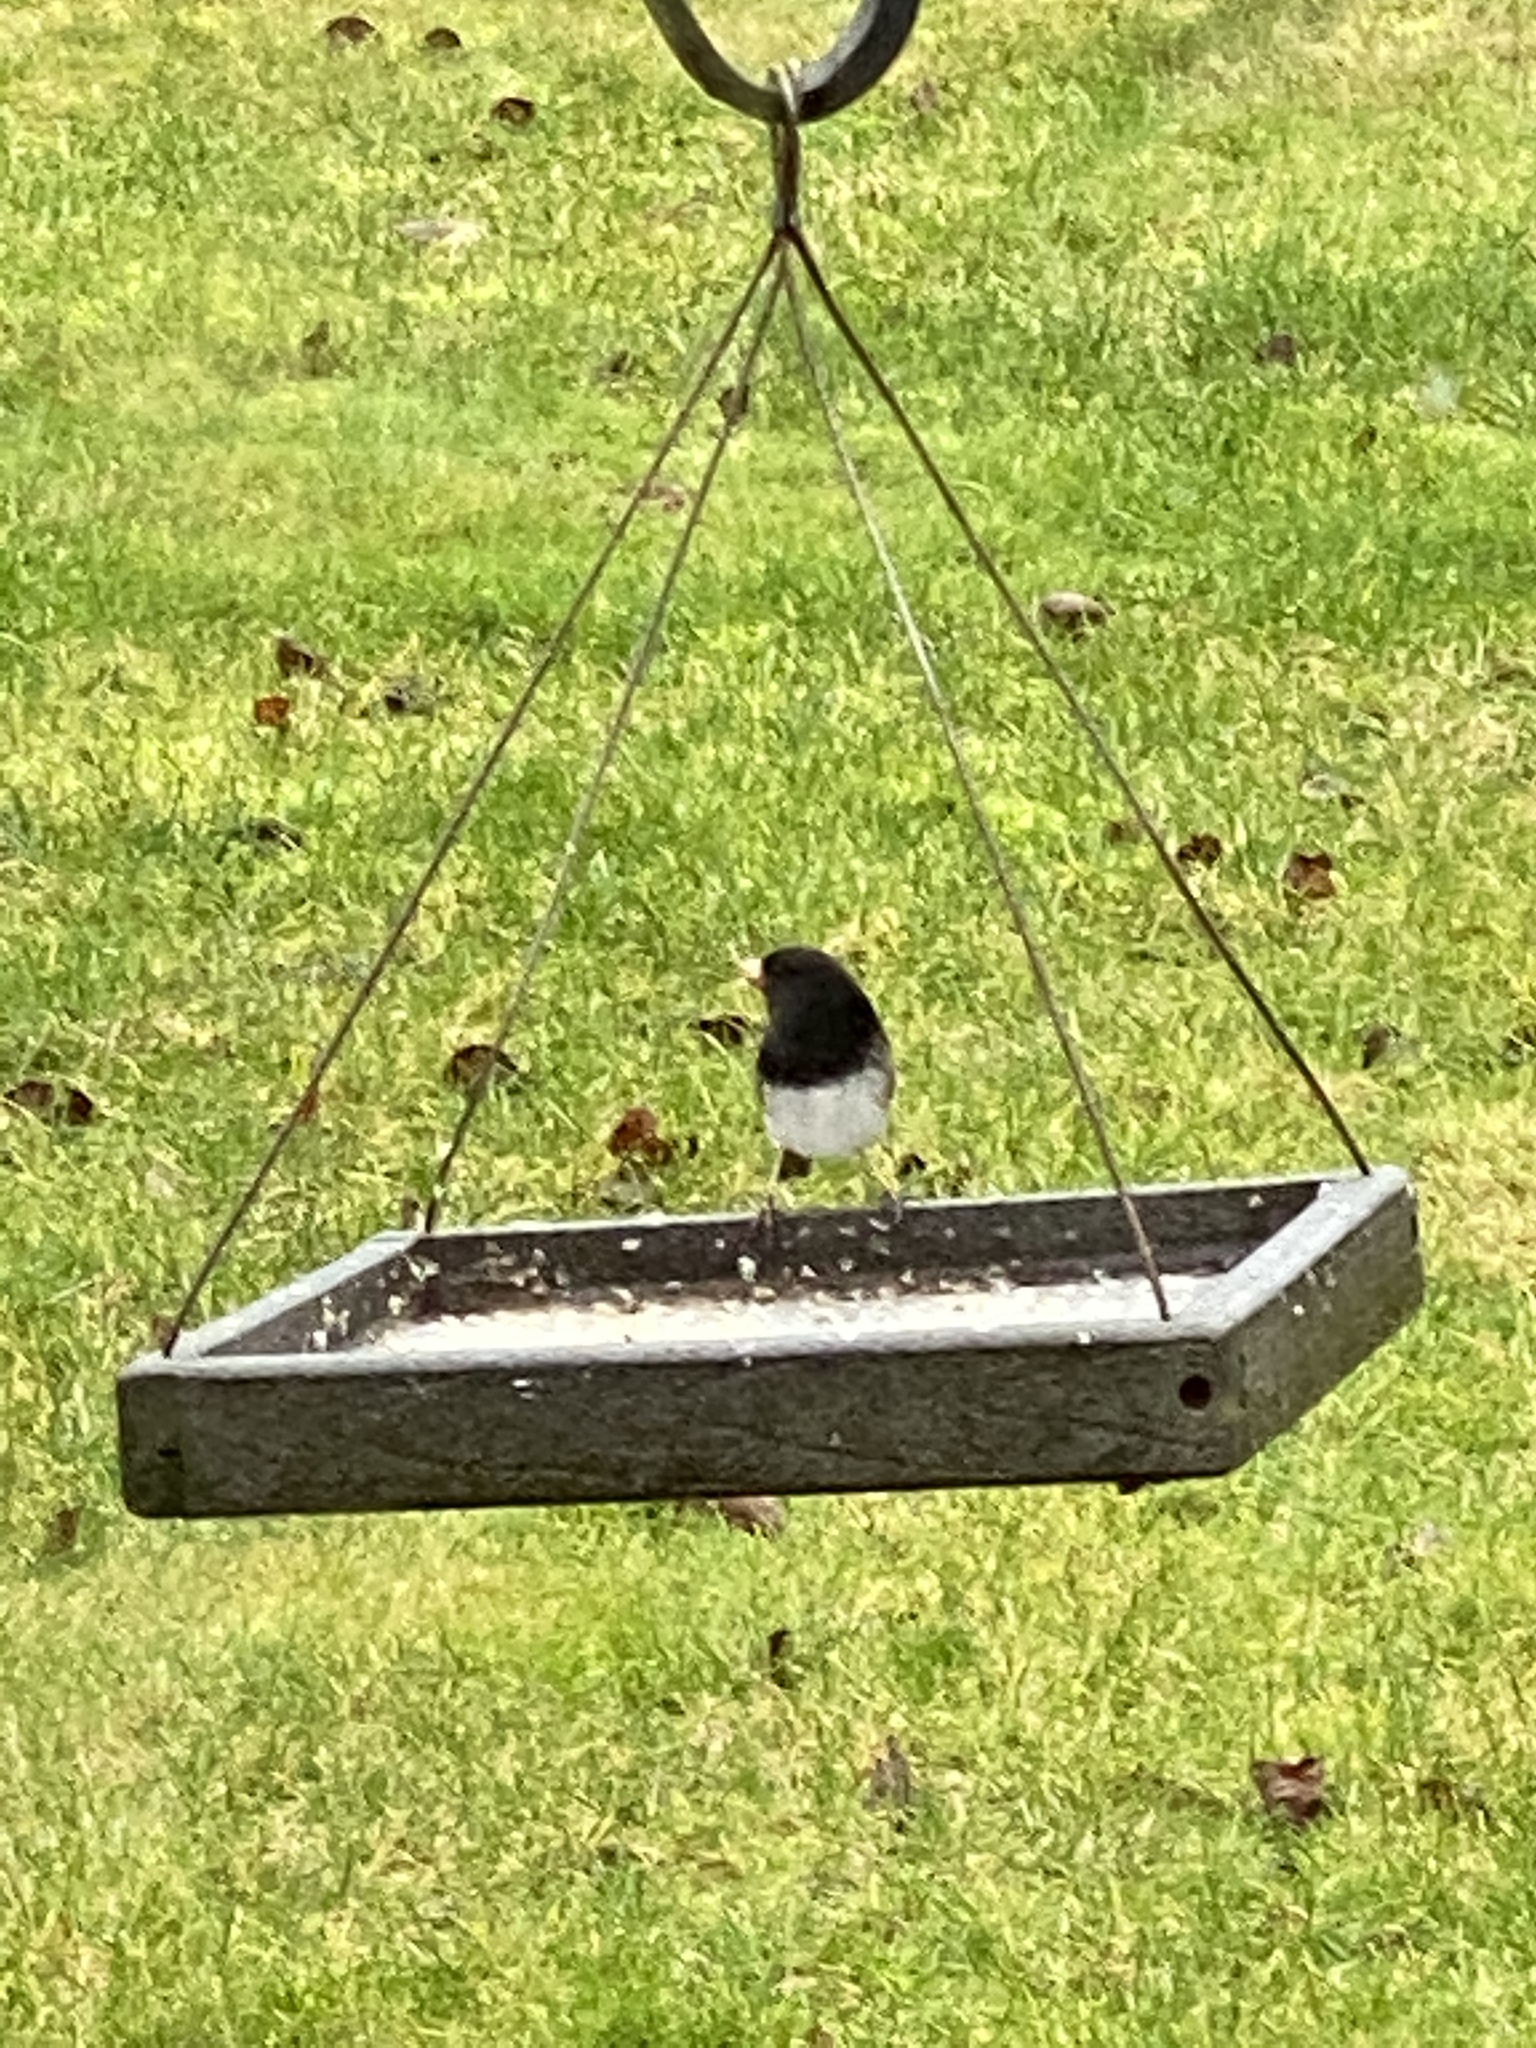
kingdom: Animalia
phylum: Chordata
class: Aves
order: Passeriformes
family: Passerellidae
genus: Junco
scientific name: Junco hyemalis
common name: Dark-eyed junco
